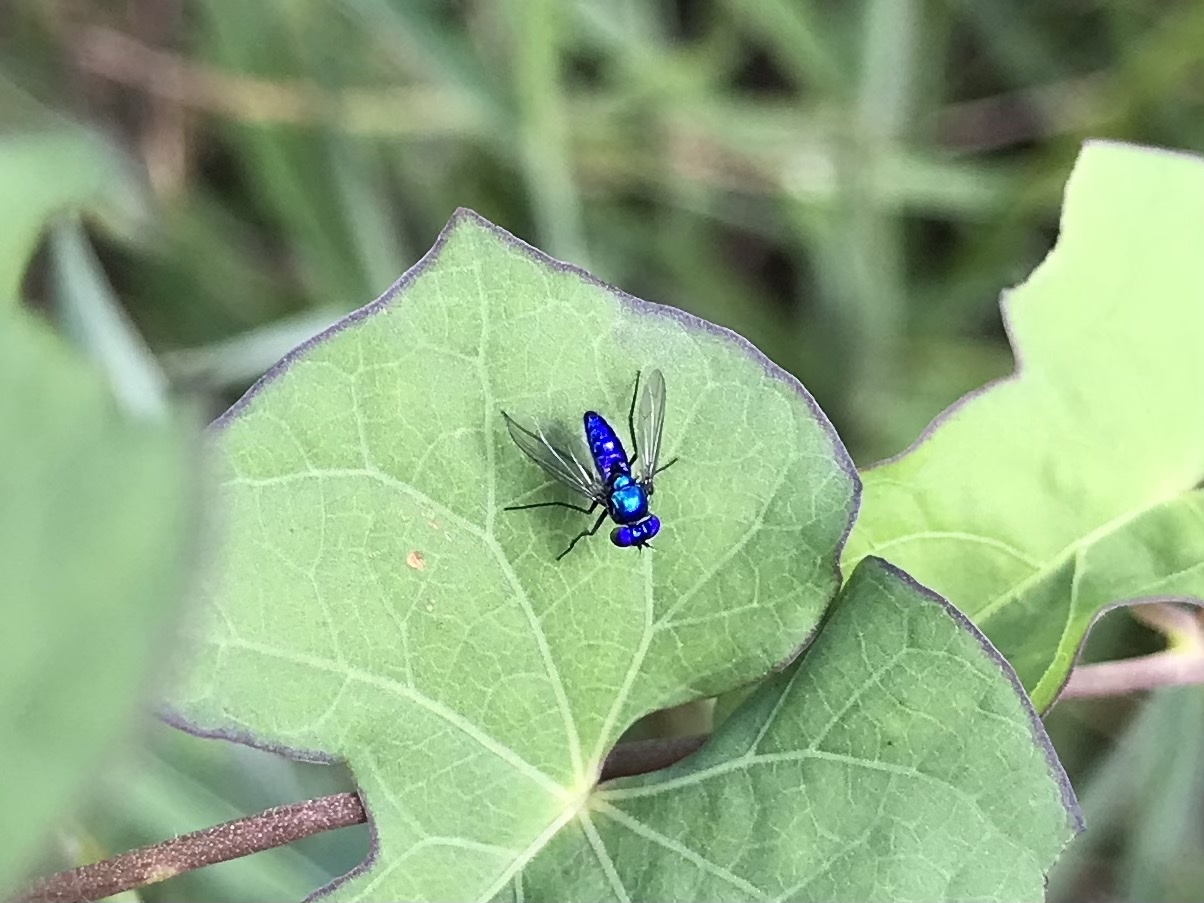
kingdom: Animalia
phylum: Arthropoda
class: Insecta
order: Diptera
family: Dolichopodidae
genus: Condylostylus
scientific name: Condylostylus mundus
